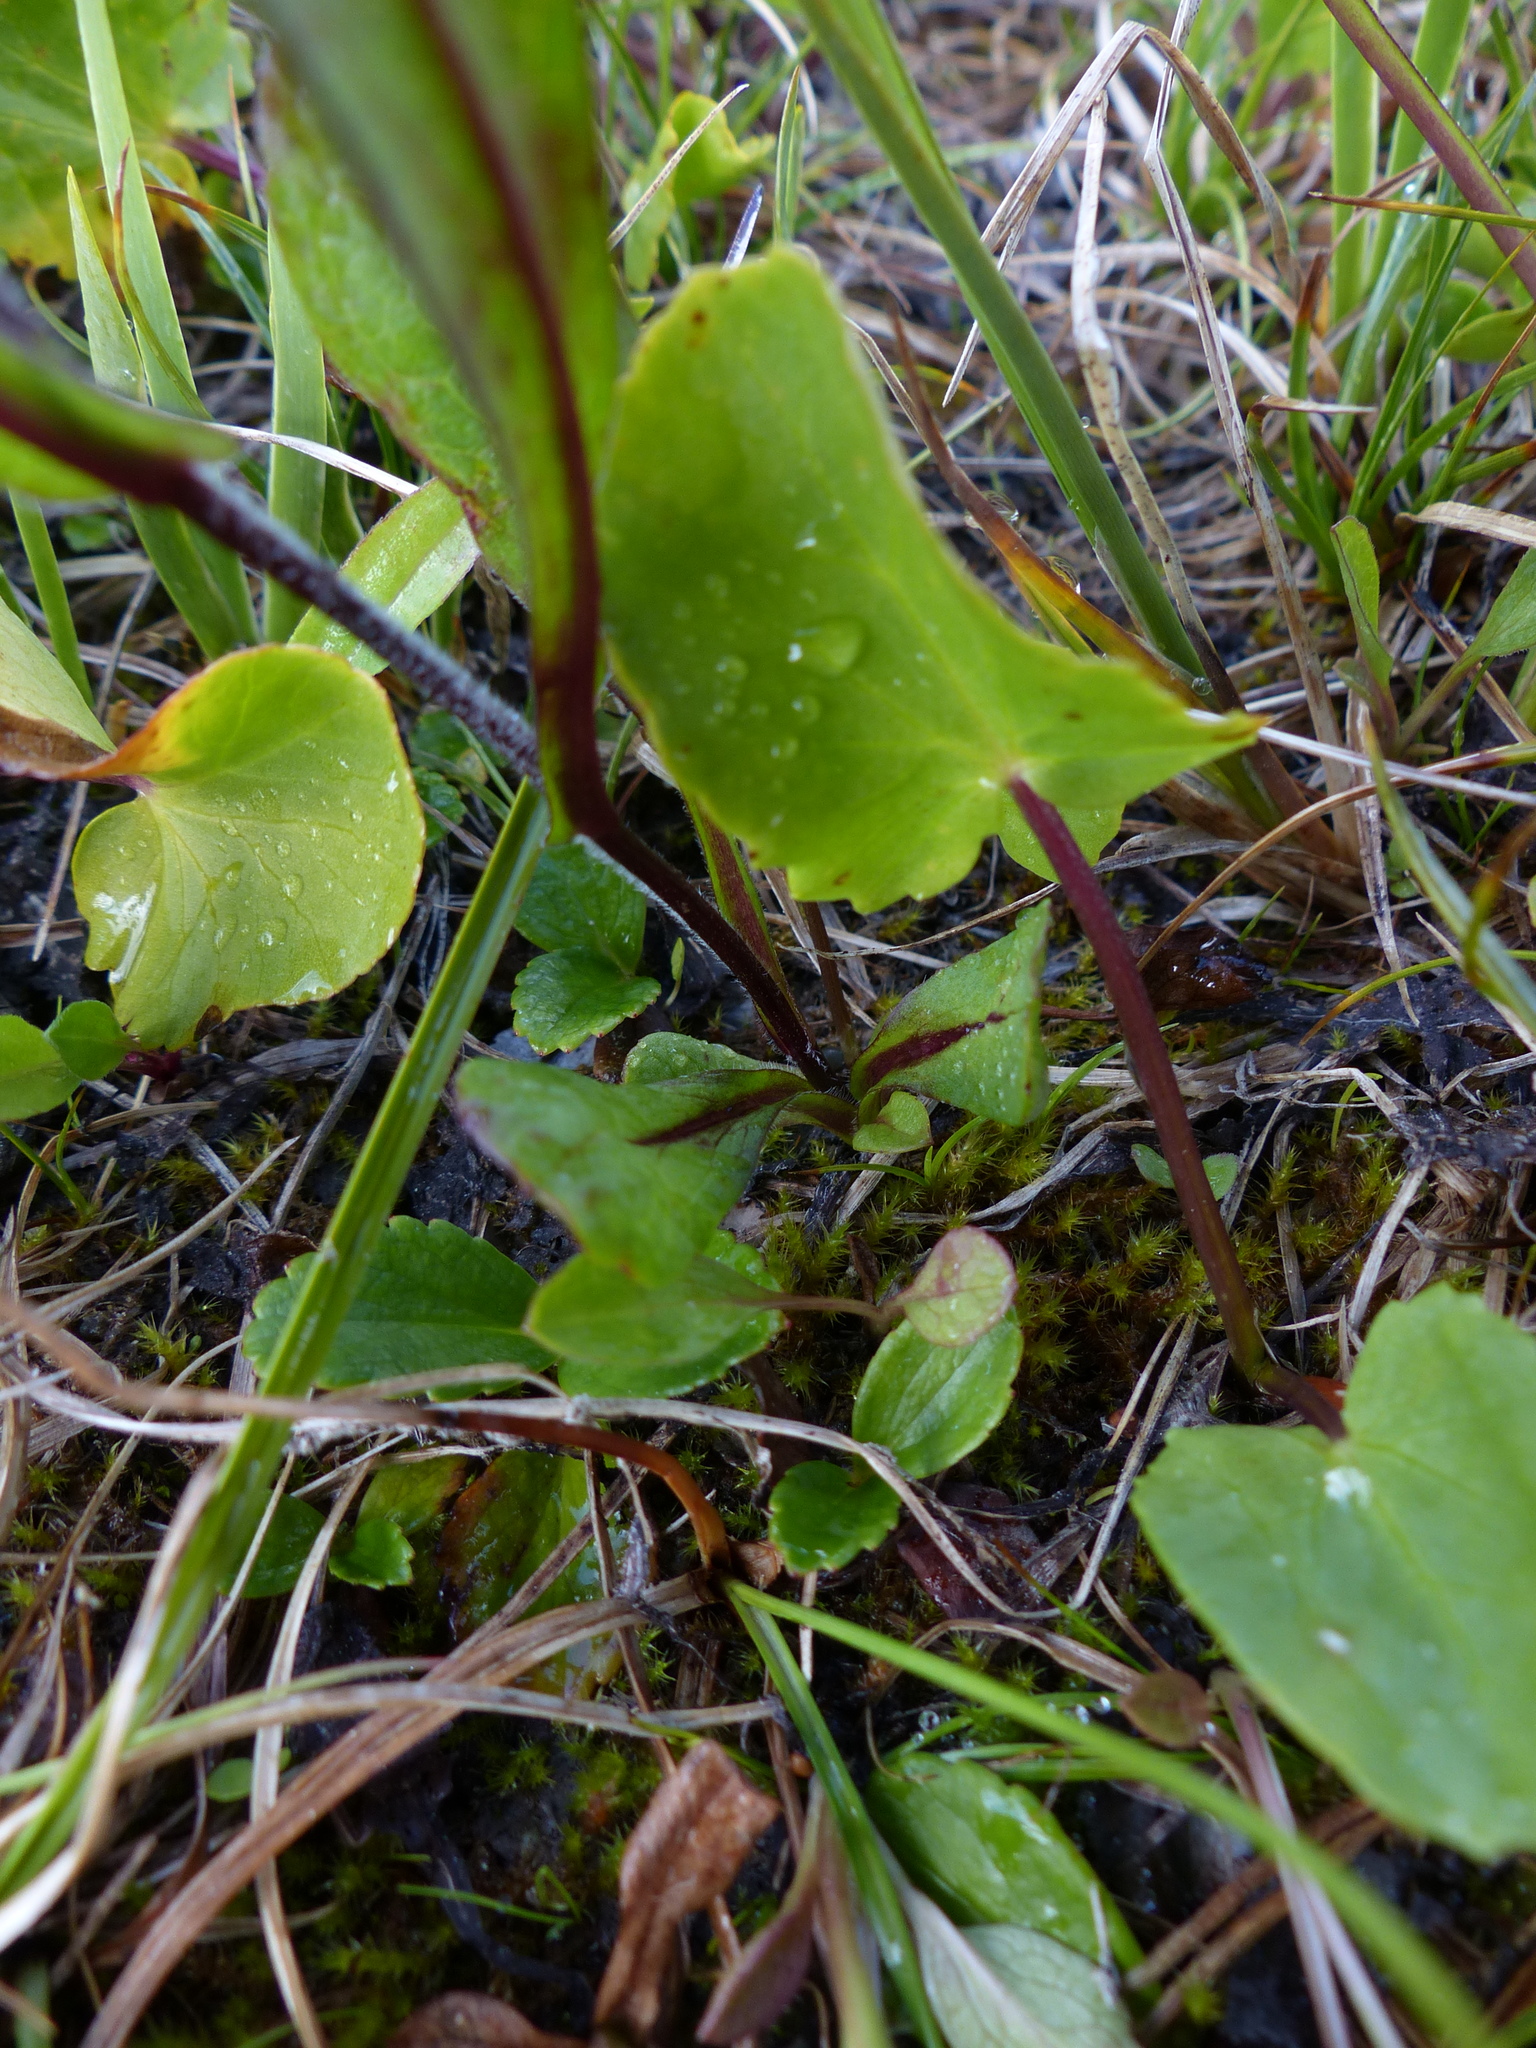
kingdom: Plantae
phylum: Tracheophyta
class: Magnoliopsida
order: Ranunculales
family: Ranunculaceae
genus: Caltha
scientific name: Caltha leptosepala
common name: Elkslip
